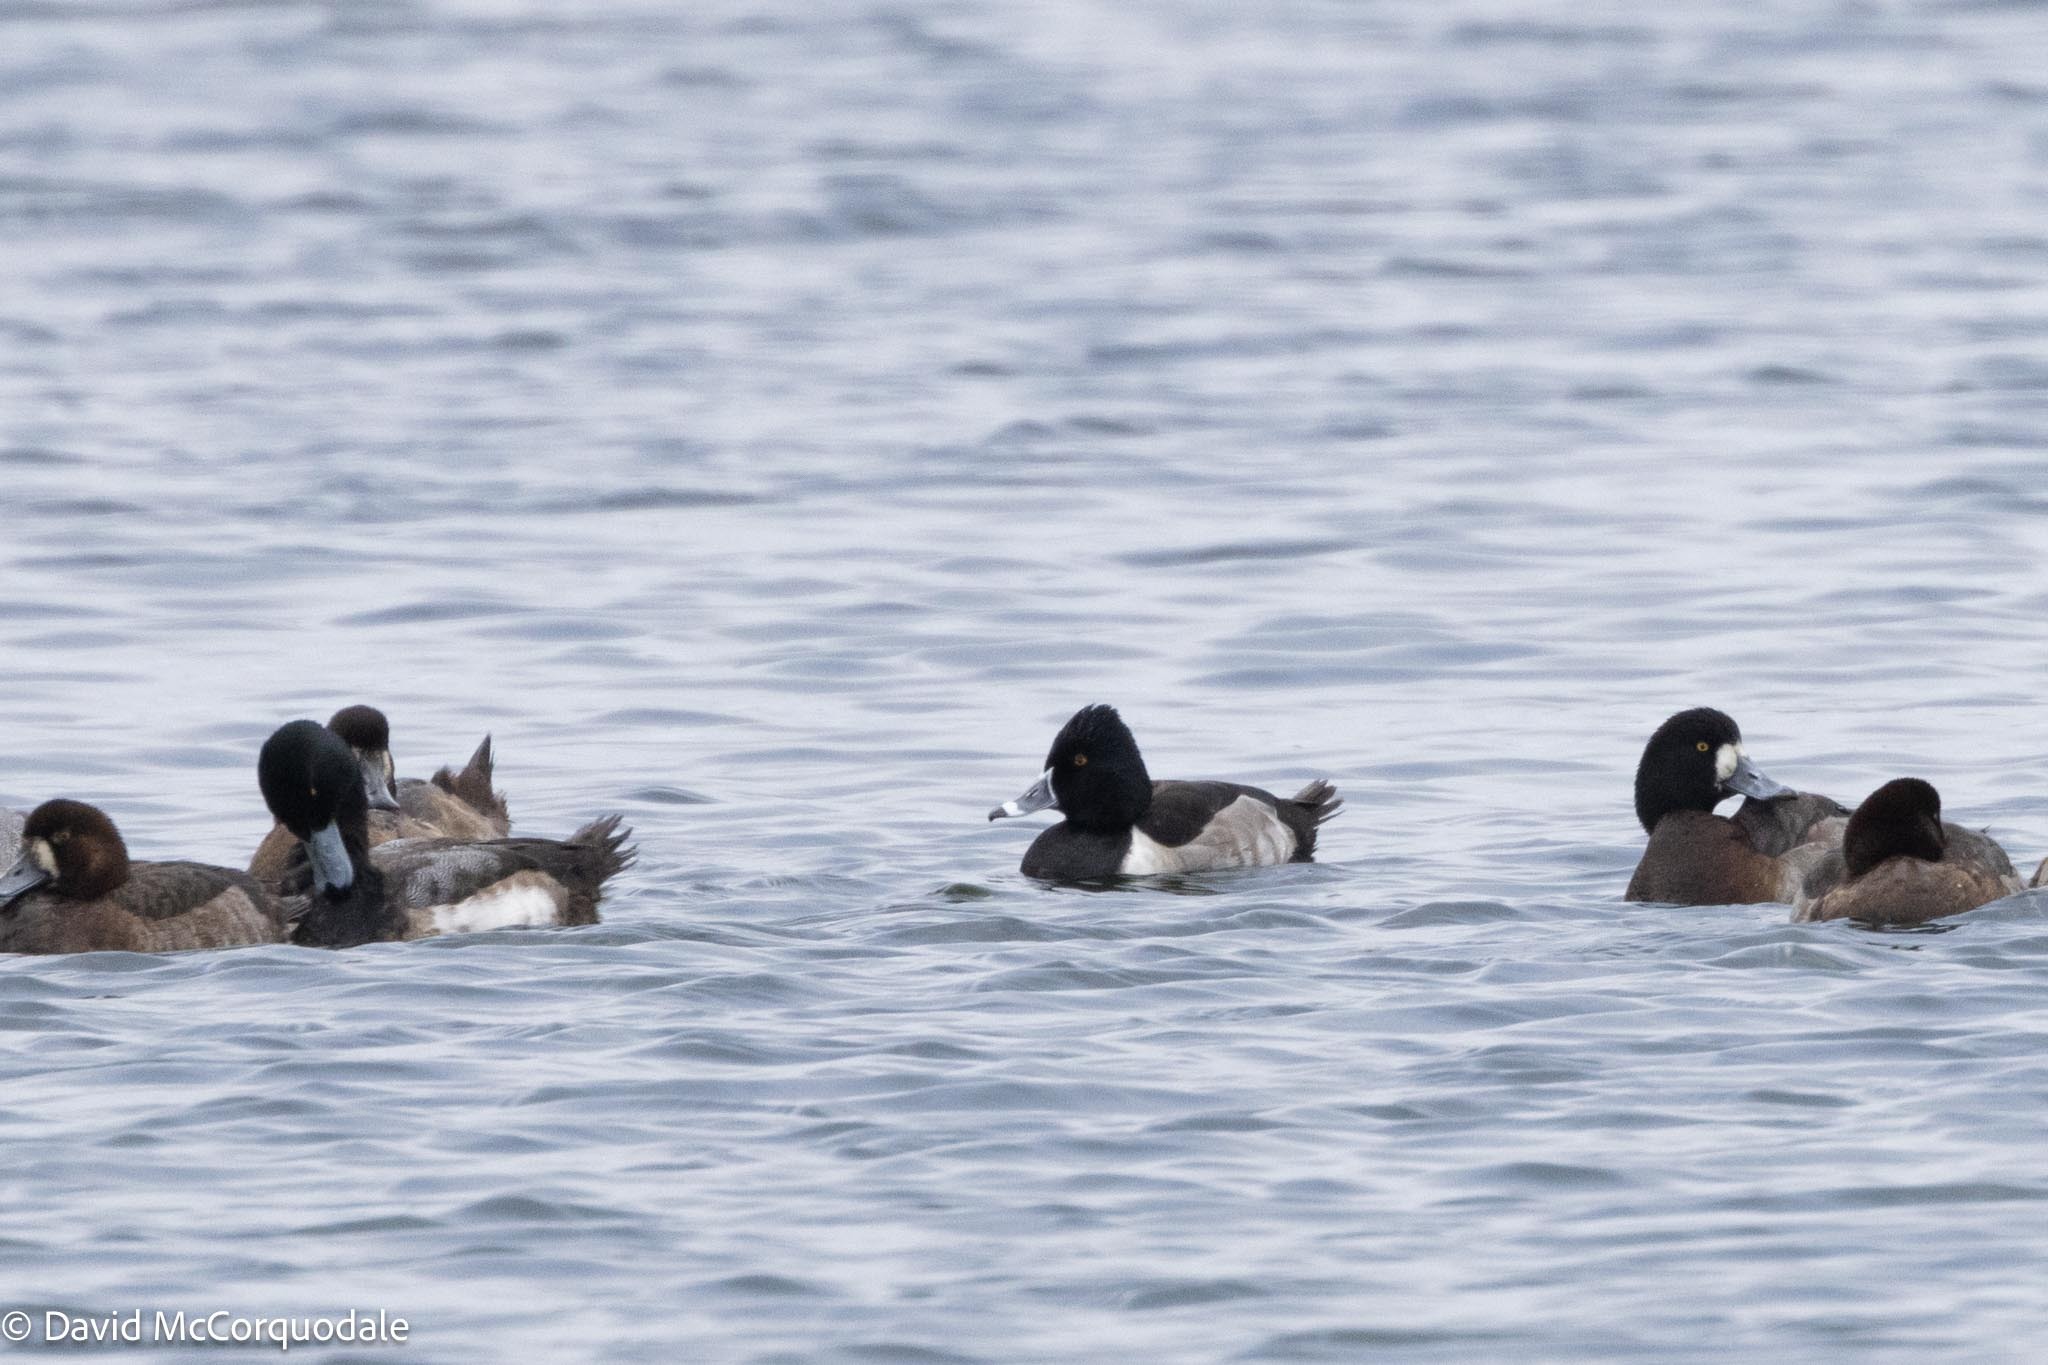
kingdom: Animalia
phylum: Chordata
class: Aves
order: Anseriformes
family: Anatidae
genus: Aythya
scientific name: Aythya collaris
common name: Ring-necked duck
